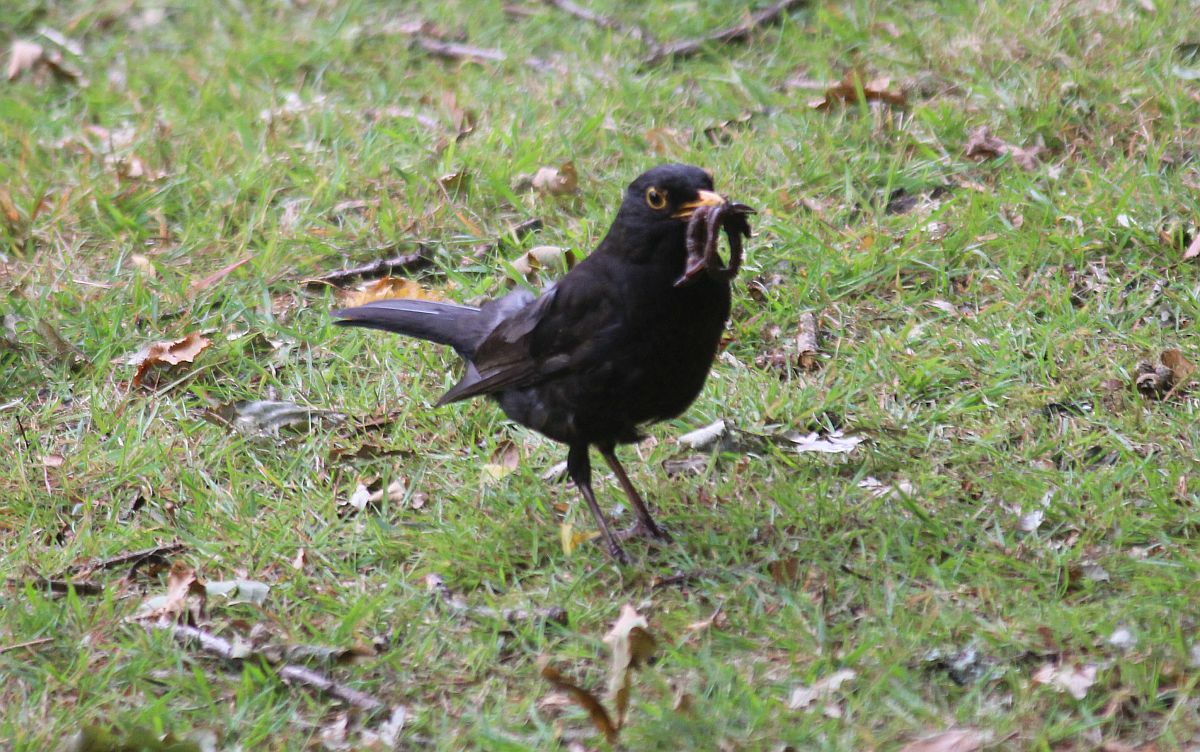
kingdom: Animalia
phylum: Chordata
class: Aves
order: Passeriformes
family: Turdidae
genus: Turdus
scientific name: Turdus merula
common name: Common blackbird
